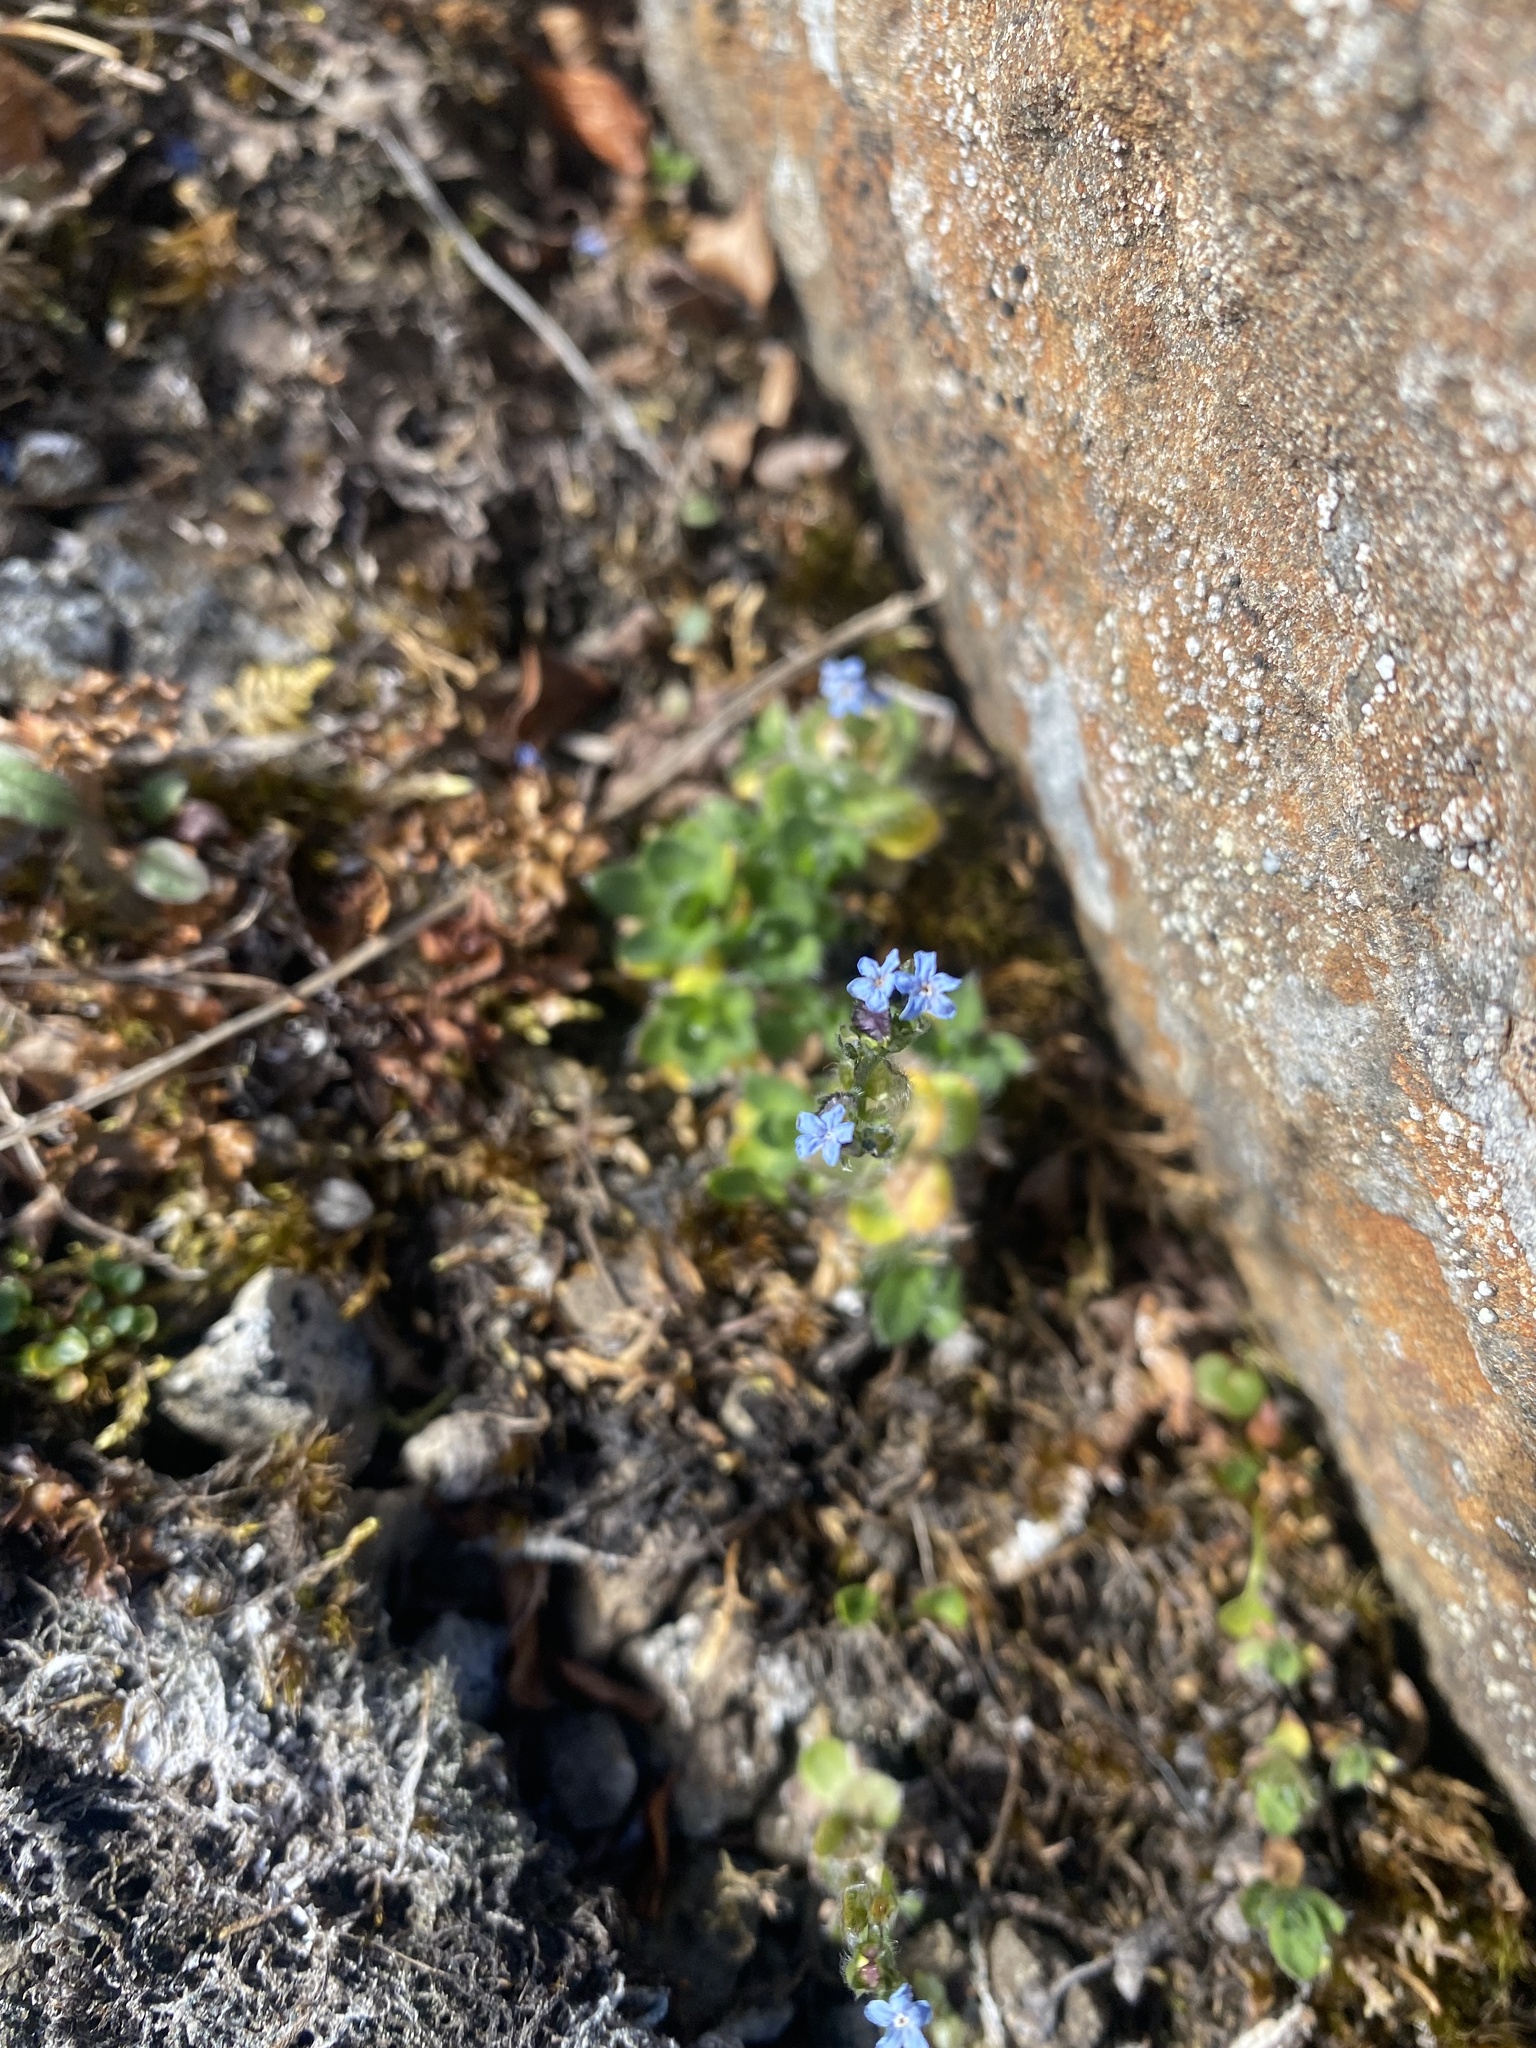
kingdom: Plantae
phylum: Tracheophyta
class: Magnoliopsida
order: Boraginales
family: Boraginaceae
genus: Eritrichium
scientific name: Eritrichium villosum
